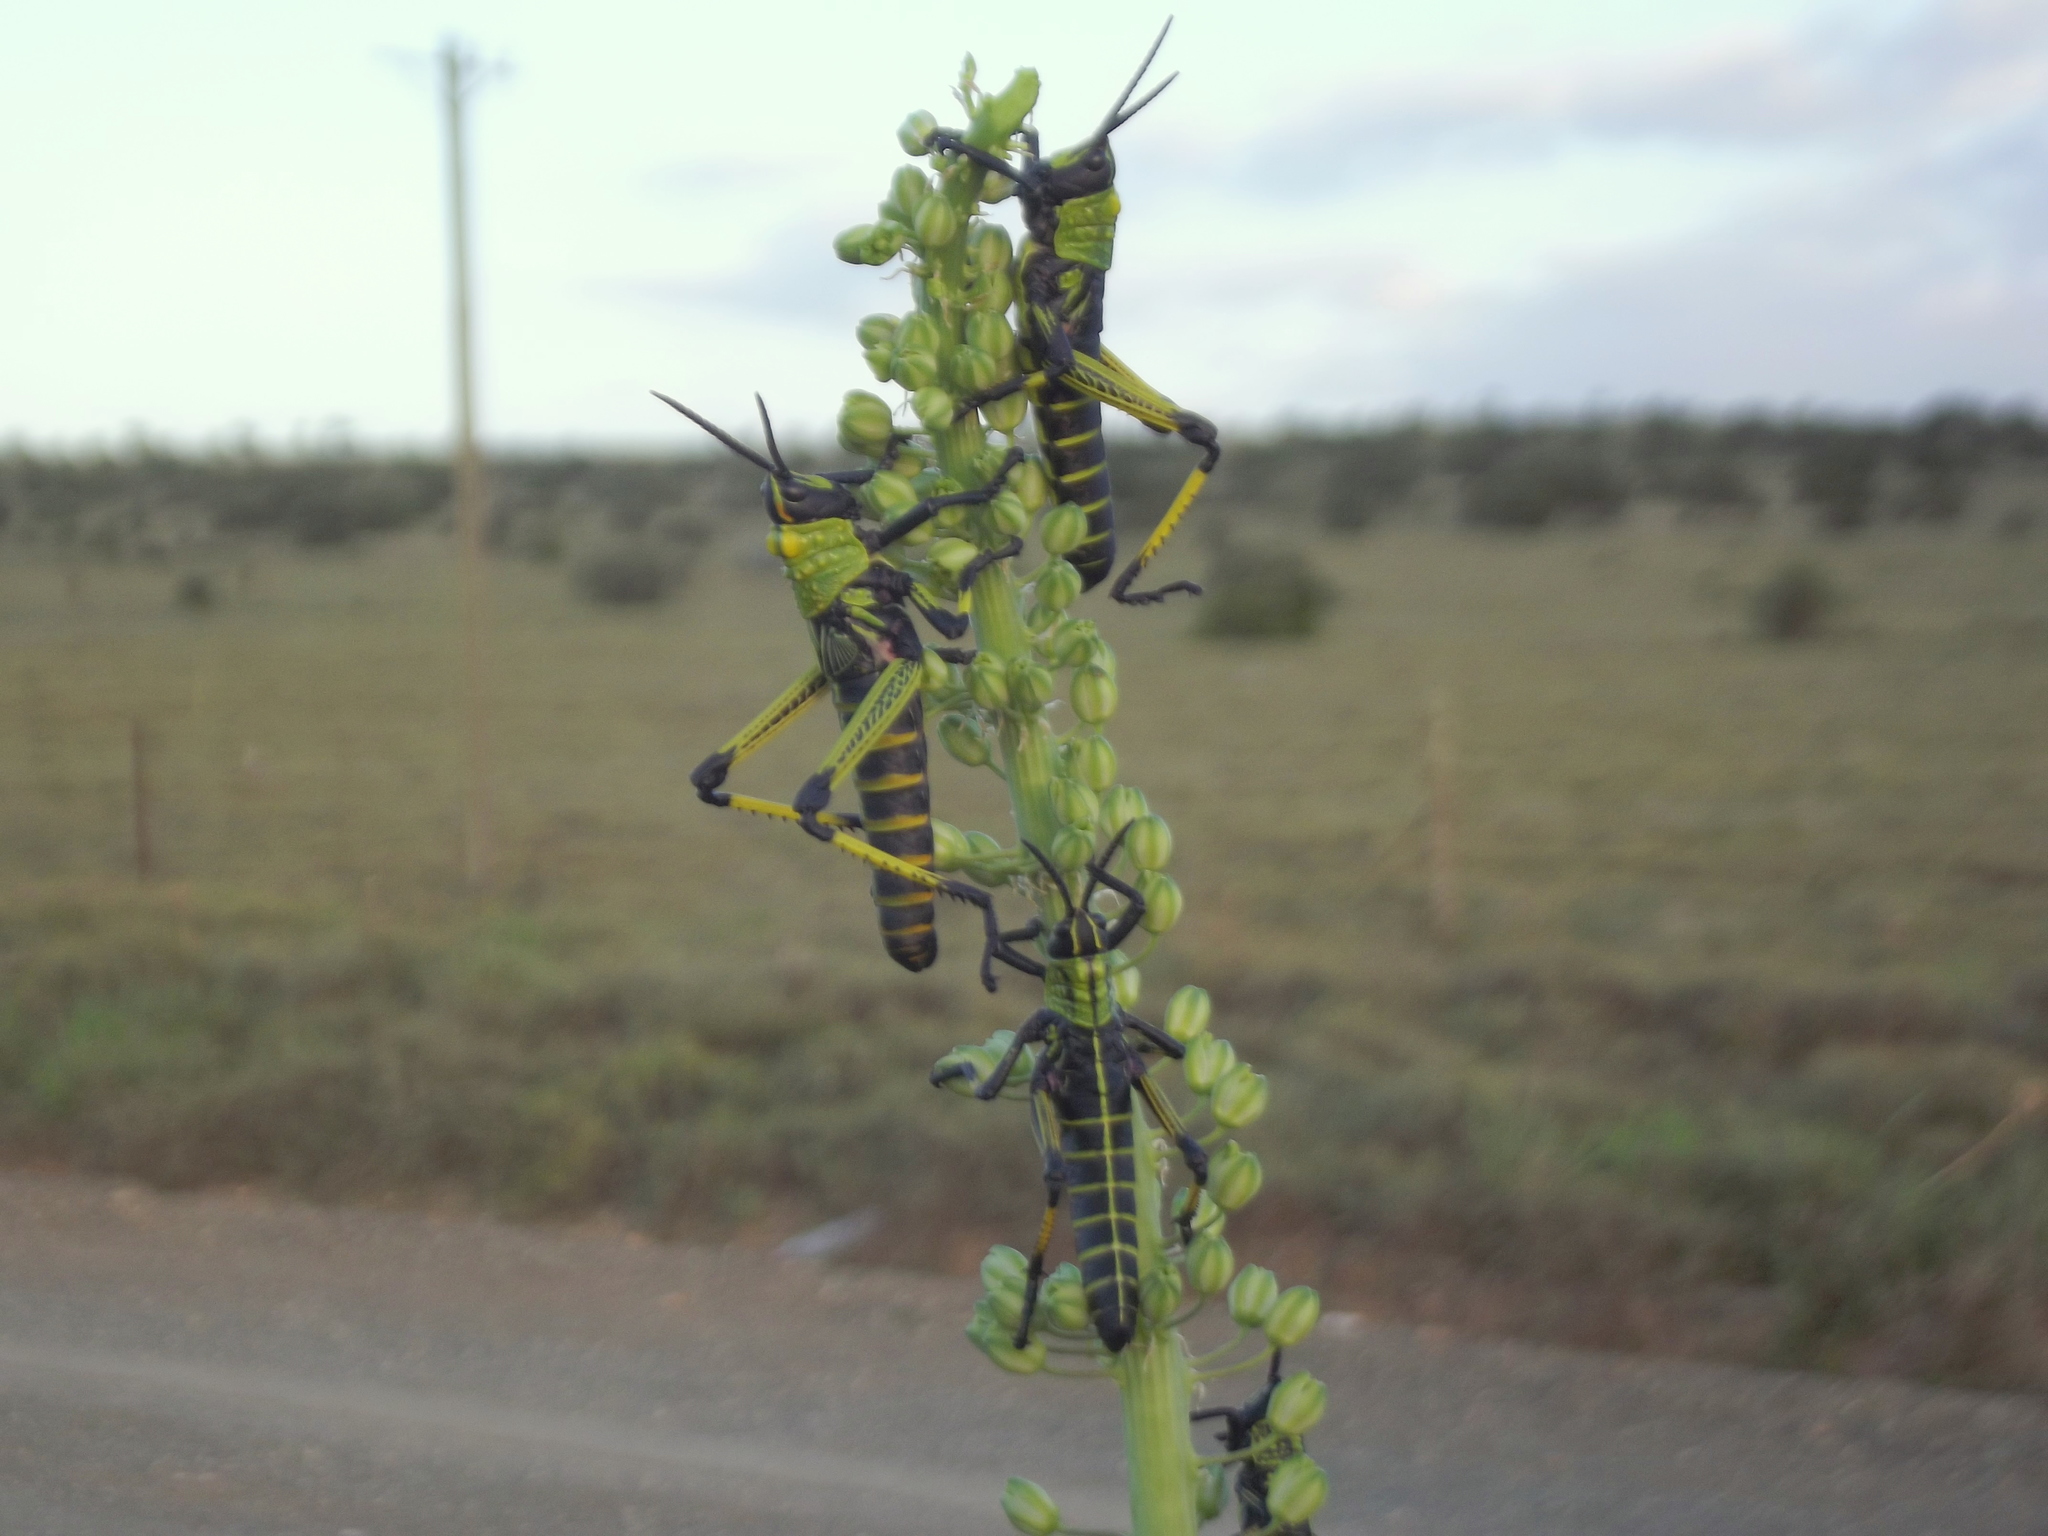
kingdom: Animalia
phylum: Arthropoda
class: Insecta
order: Orthoptera
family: Pyrgomorphidae
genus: Phymateus
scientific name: Phymateus leprosus
